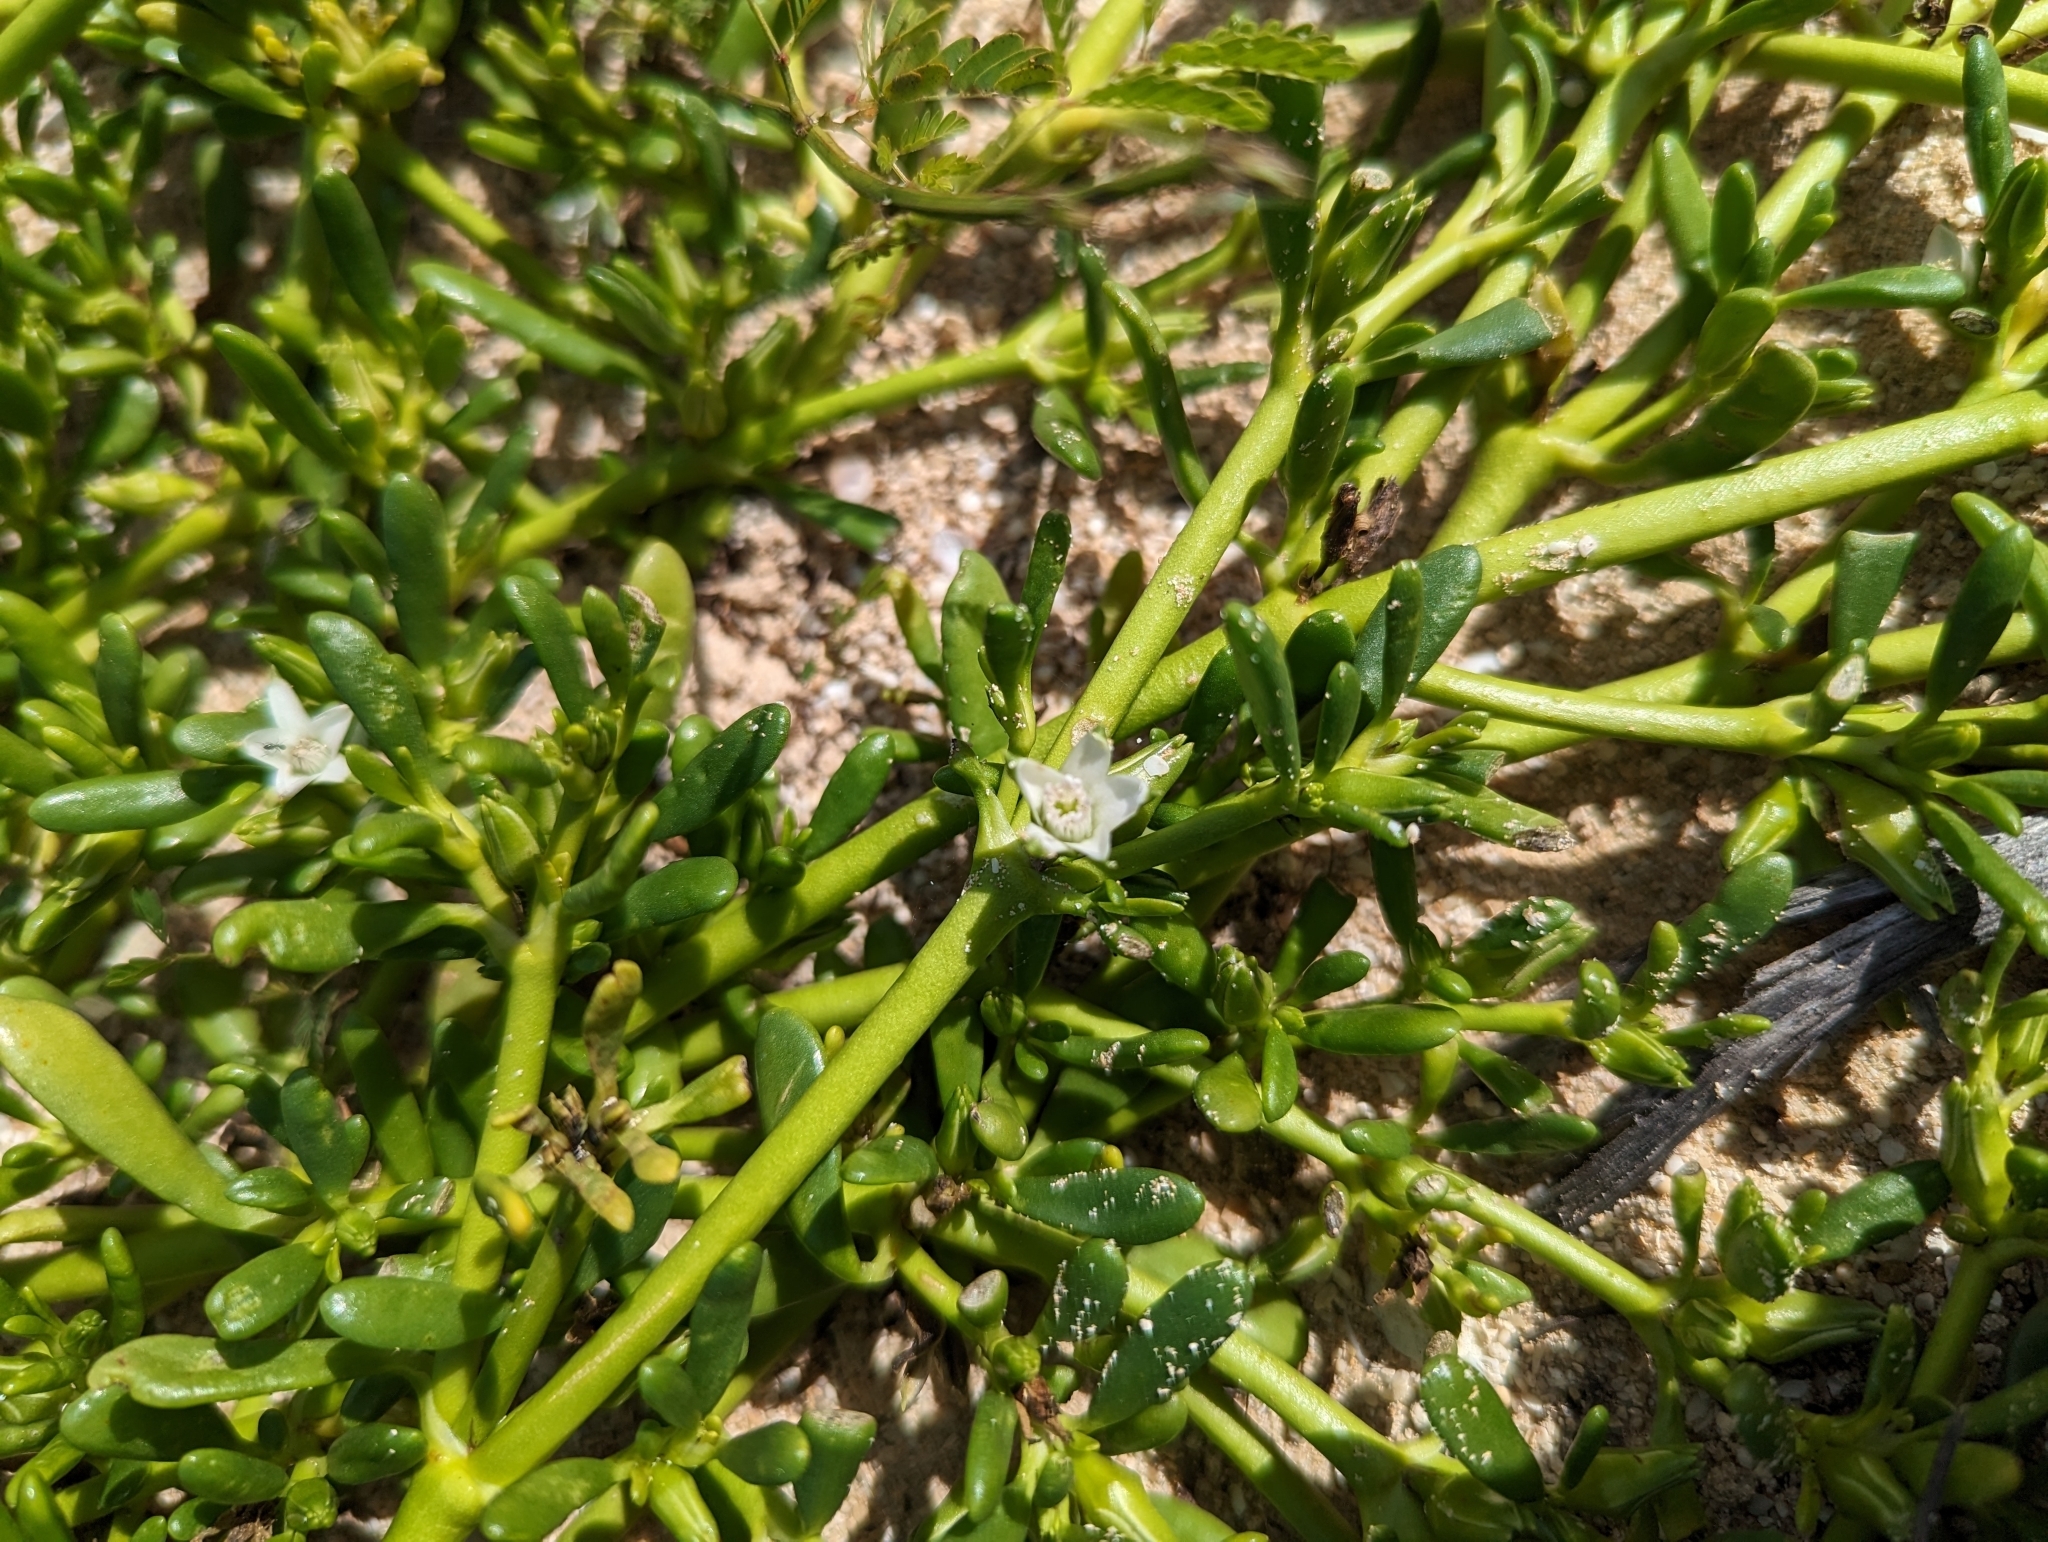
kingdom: Plantae
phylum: Tracheophyta
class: Magnoliopsida
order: Caryophyllales
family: Aizoaceae
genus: Sesuvium
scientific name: Sesuvium portulacastrum
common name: Sea-purslane
